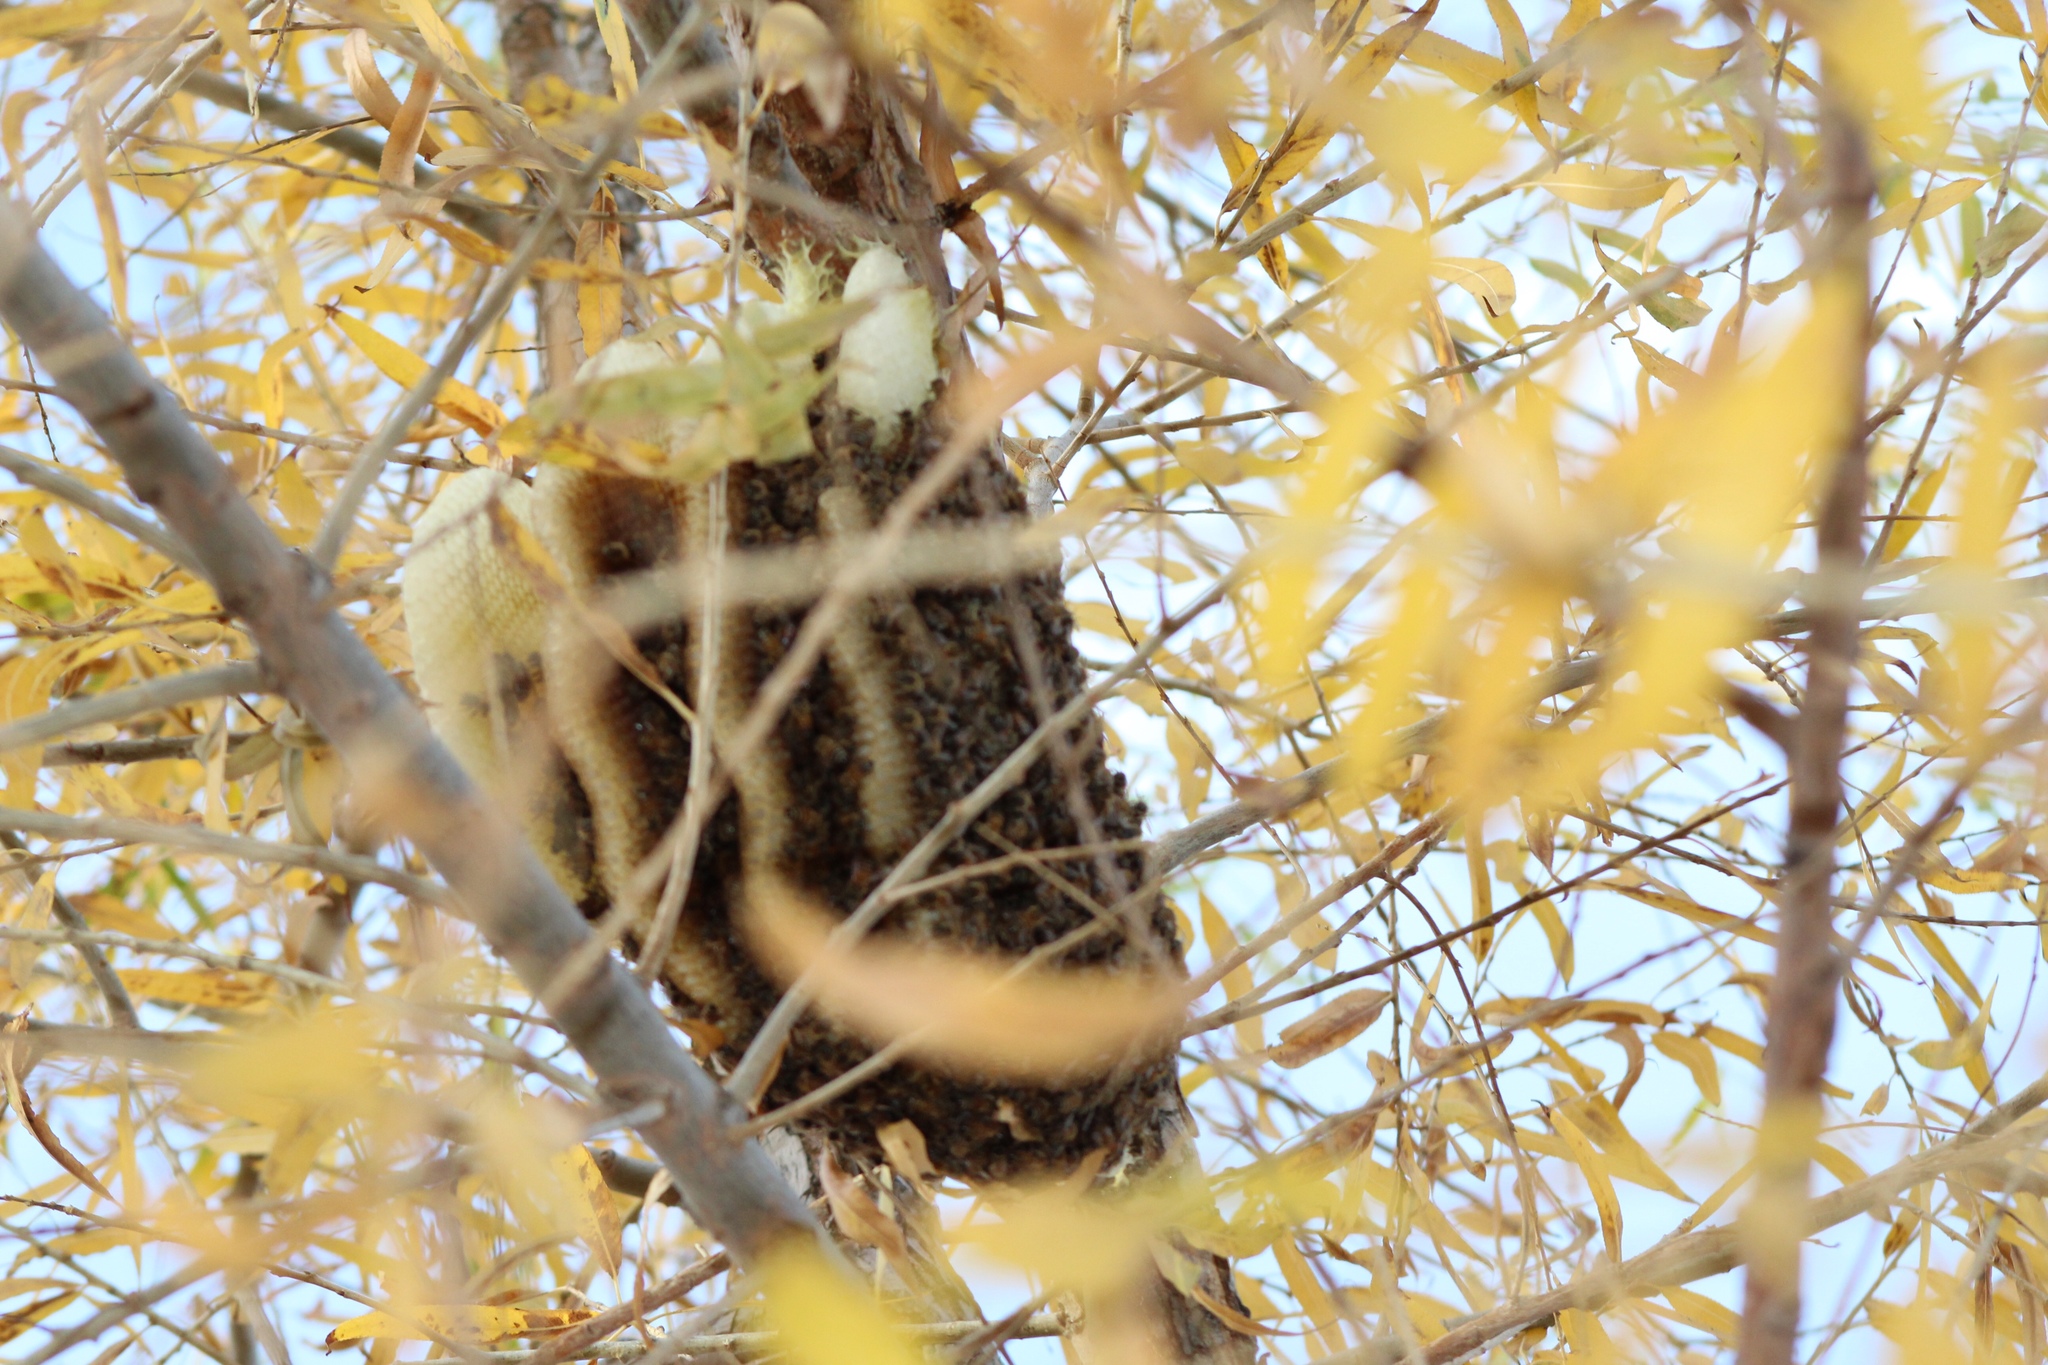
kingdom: Animalia
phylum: Arthropoda
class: Insecta
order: Hymenoptera
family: Apidae
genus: Apis
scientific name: Apis mellifera
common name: Honey bee
